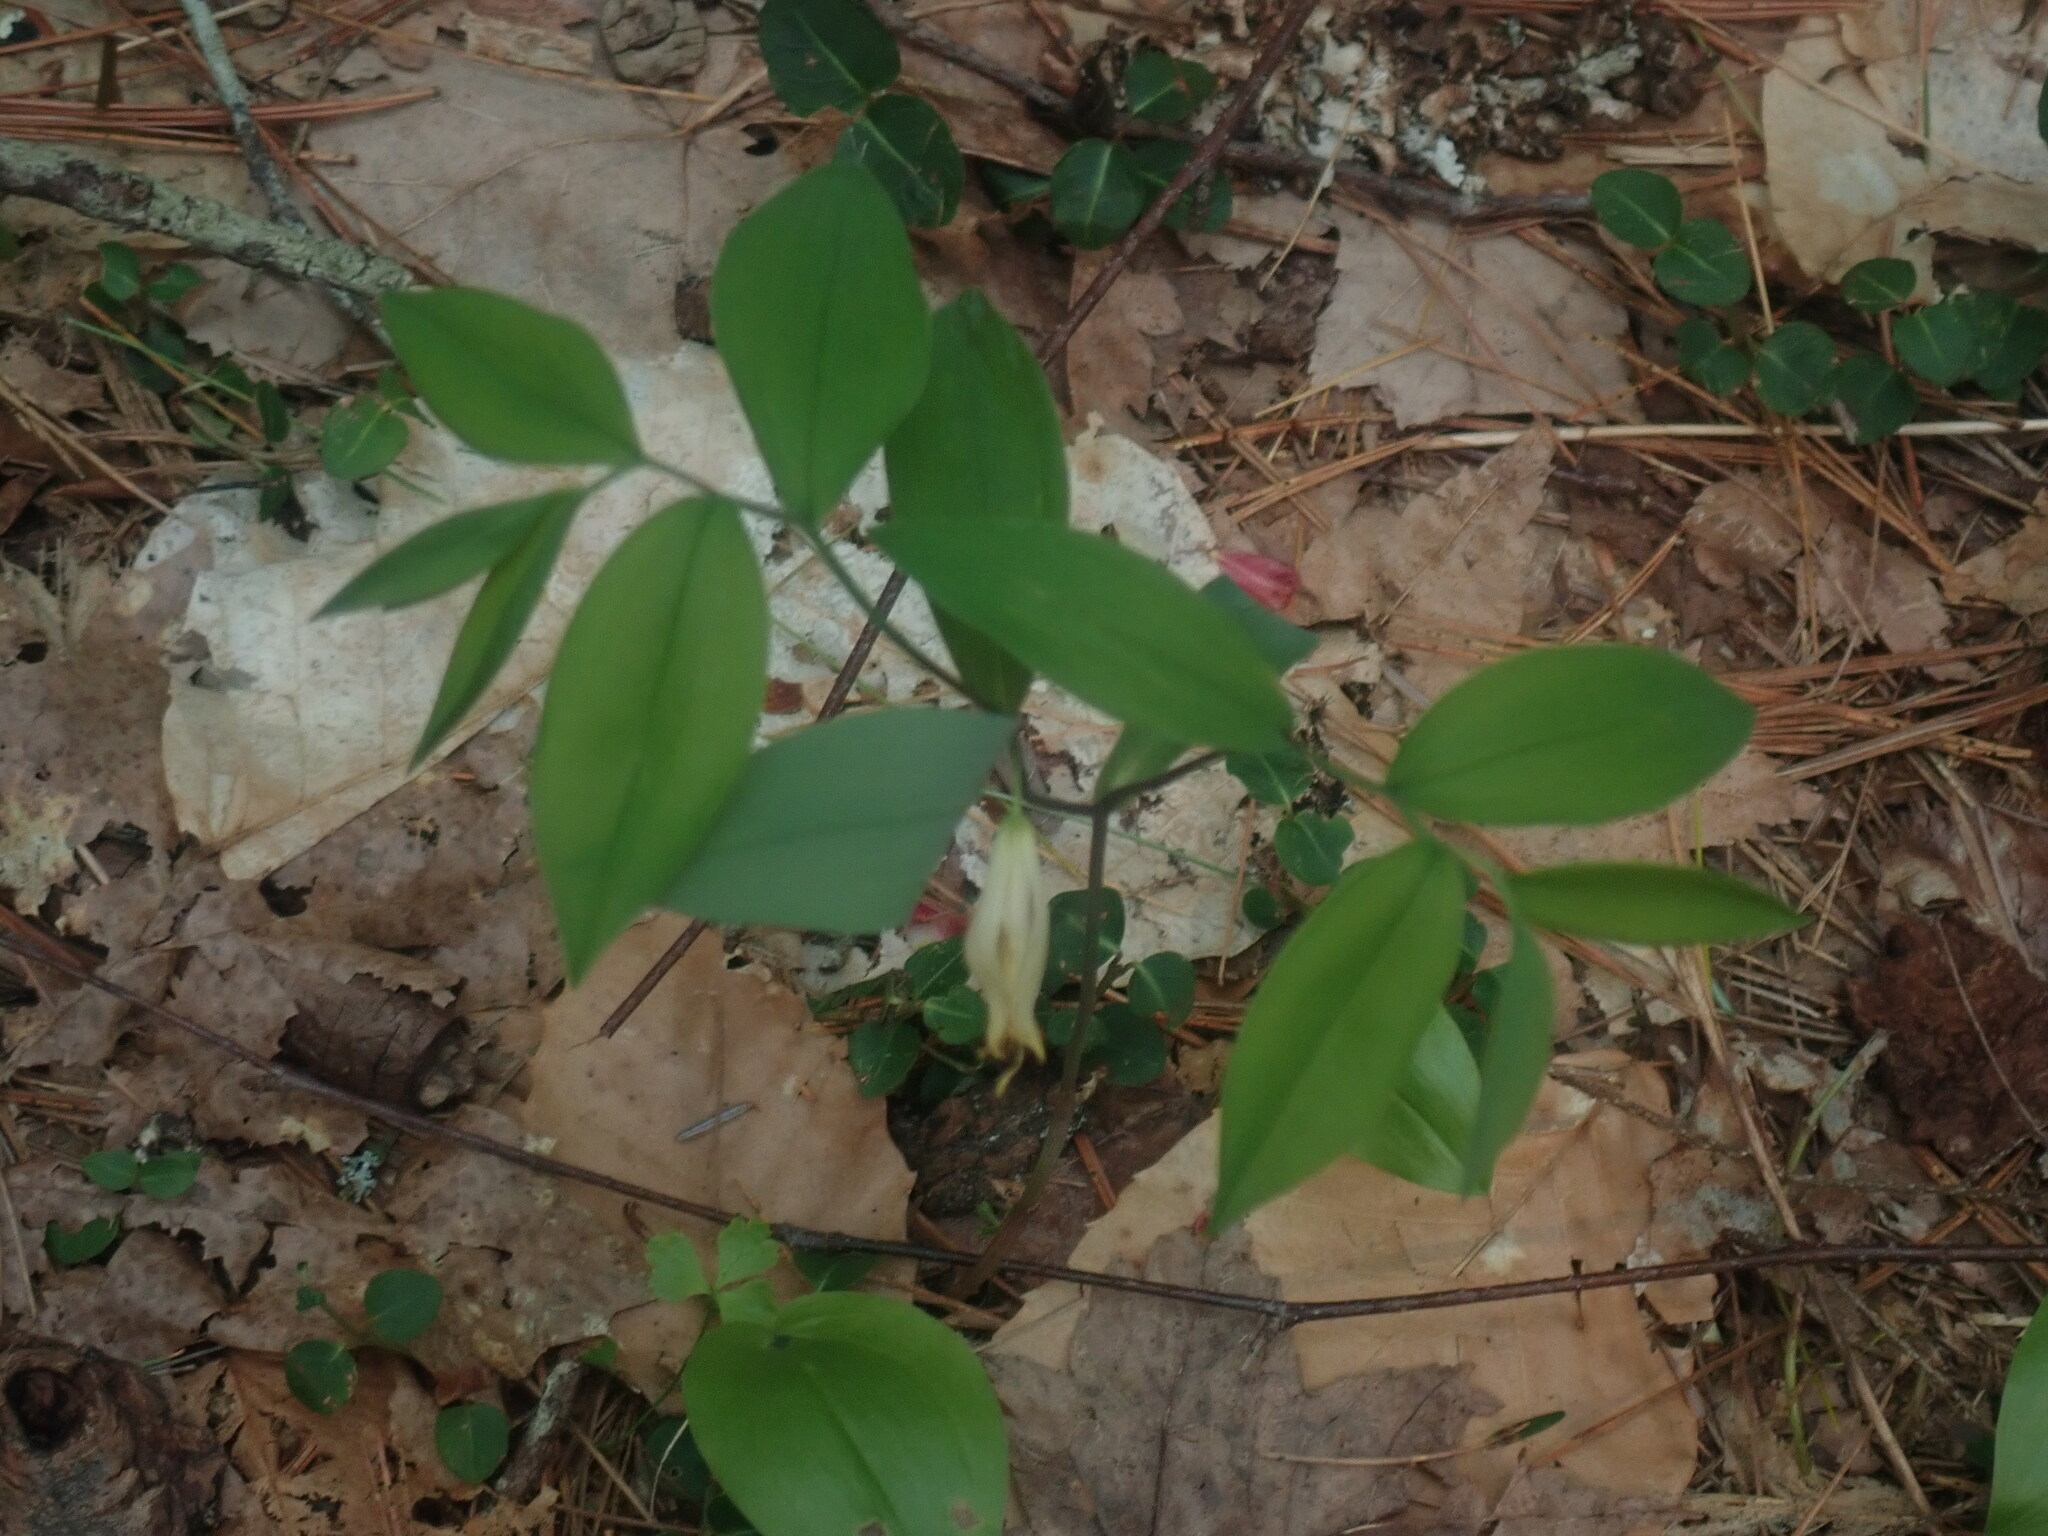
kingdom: Plantae
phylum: Tracheophyta
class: Liliopsida
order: Liliales
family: Colchicaceae
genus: Uvularia
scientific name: Uvularia sessilifolia
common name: Straw-lily
